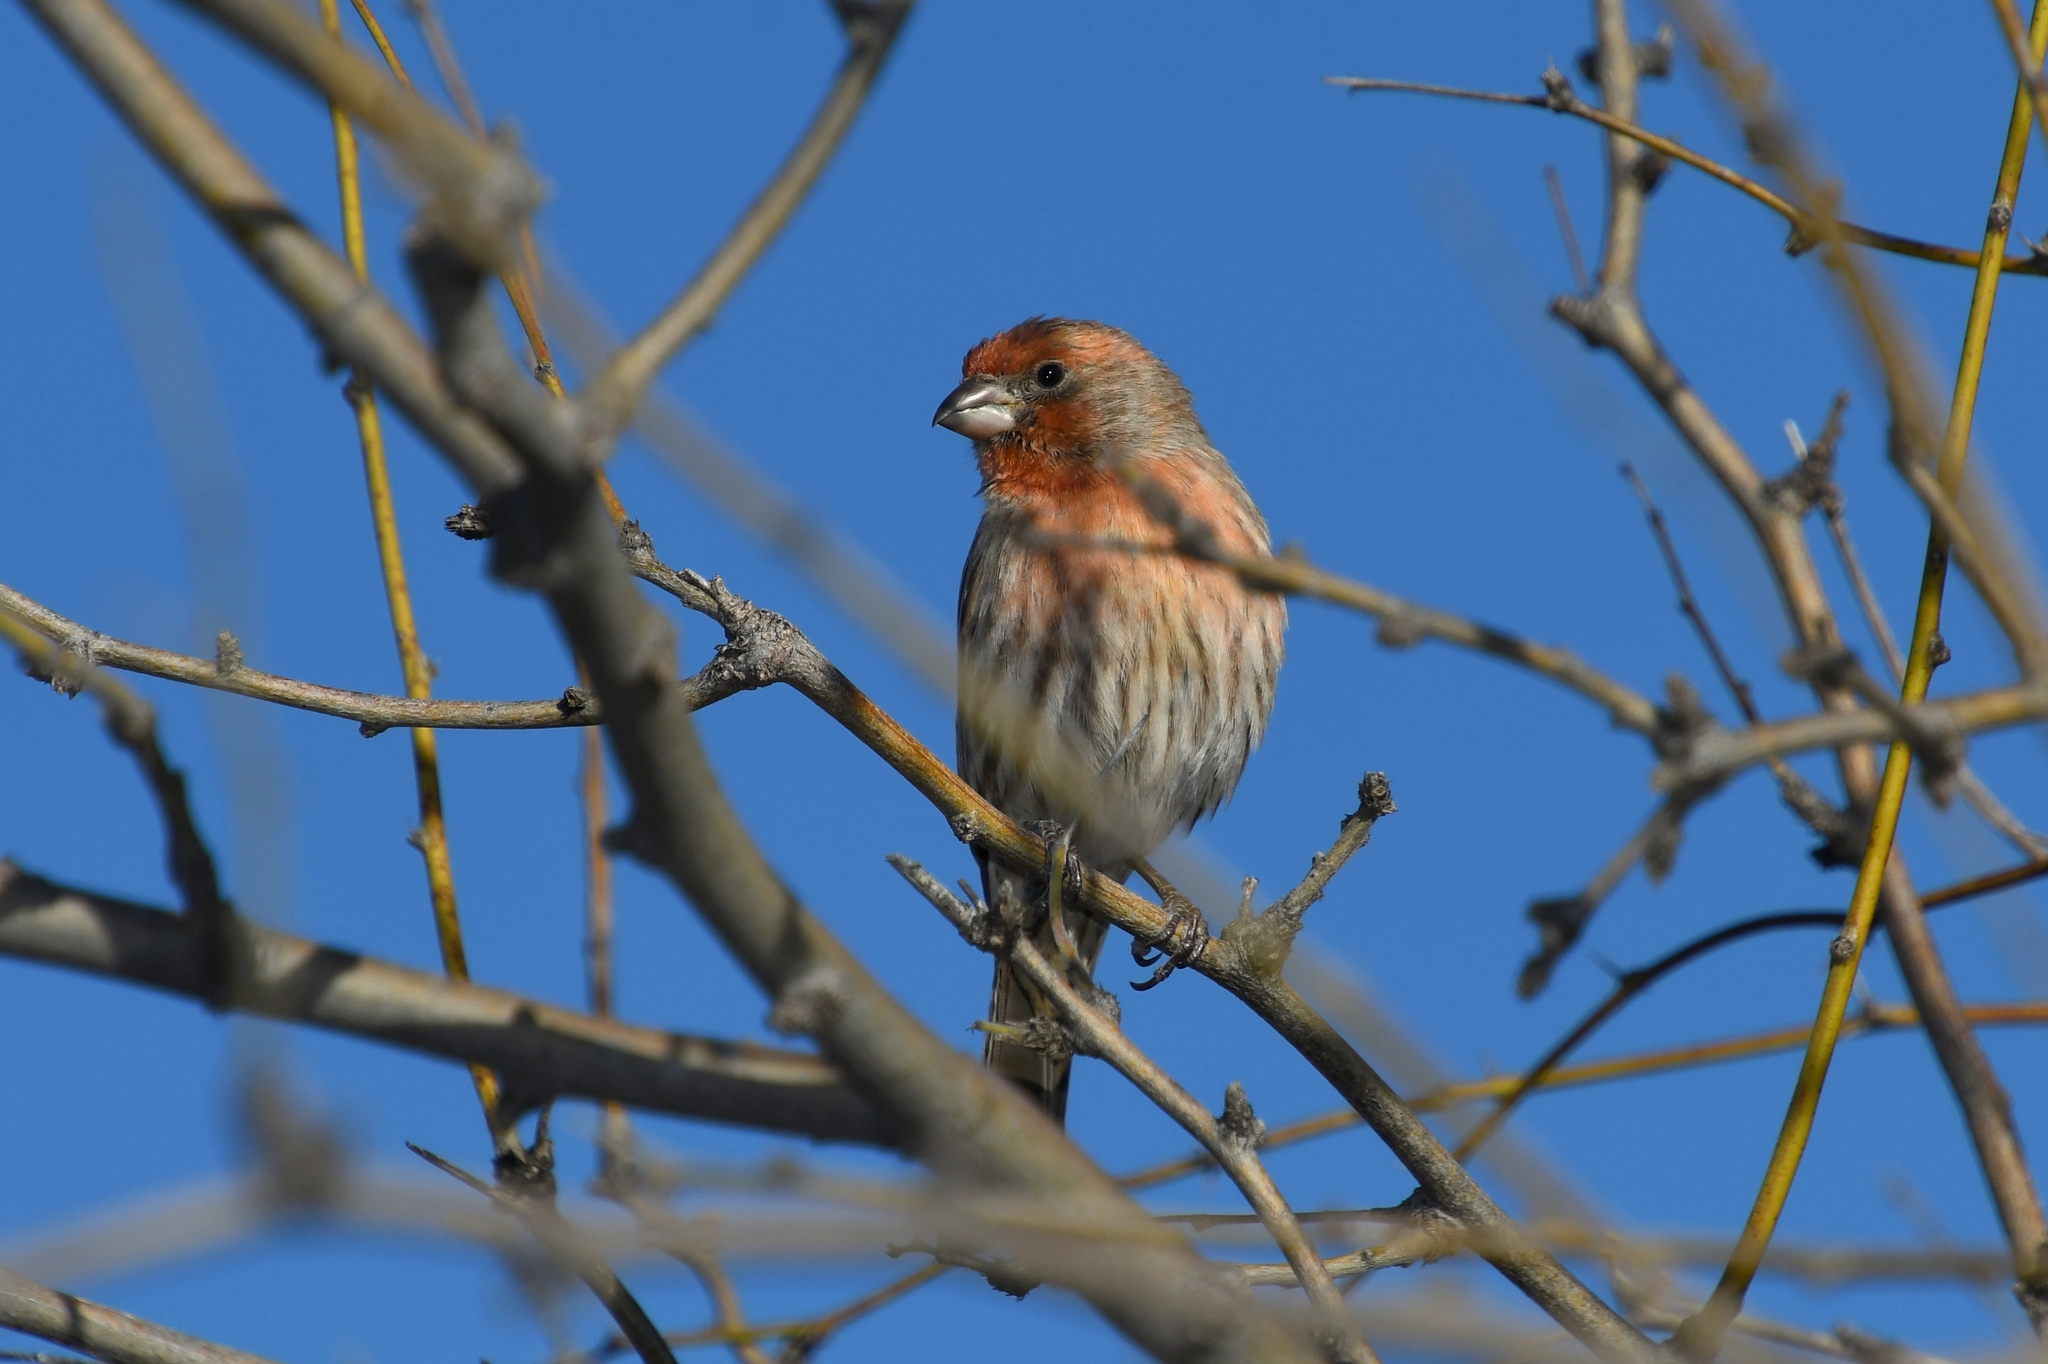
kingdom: Animalia
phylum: Chordata
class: Aves
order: Passeriformes
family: Fringillidae
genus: Haemorhous
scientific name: Haemorhous mexicanus
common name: House finch
